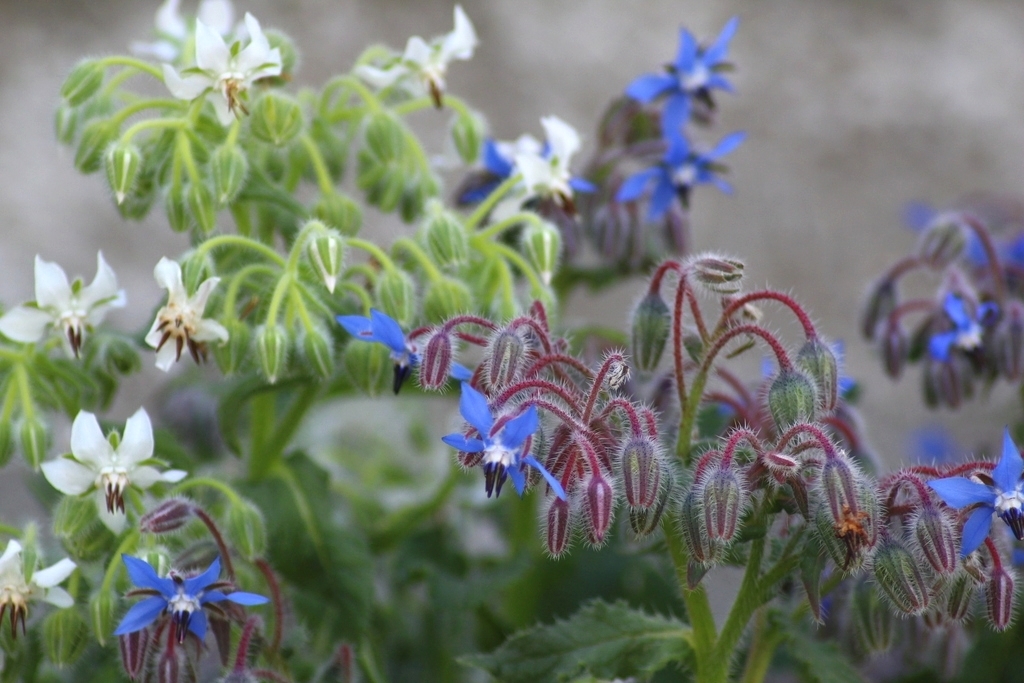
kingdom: Plantae
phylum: Tracheophyta
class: Magnoliopsida
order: Boraginales
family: Boraginaceae
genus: Borago
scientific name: Borago officinalis
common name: Borage
